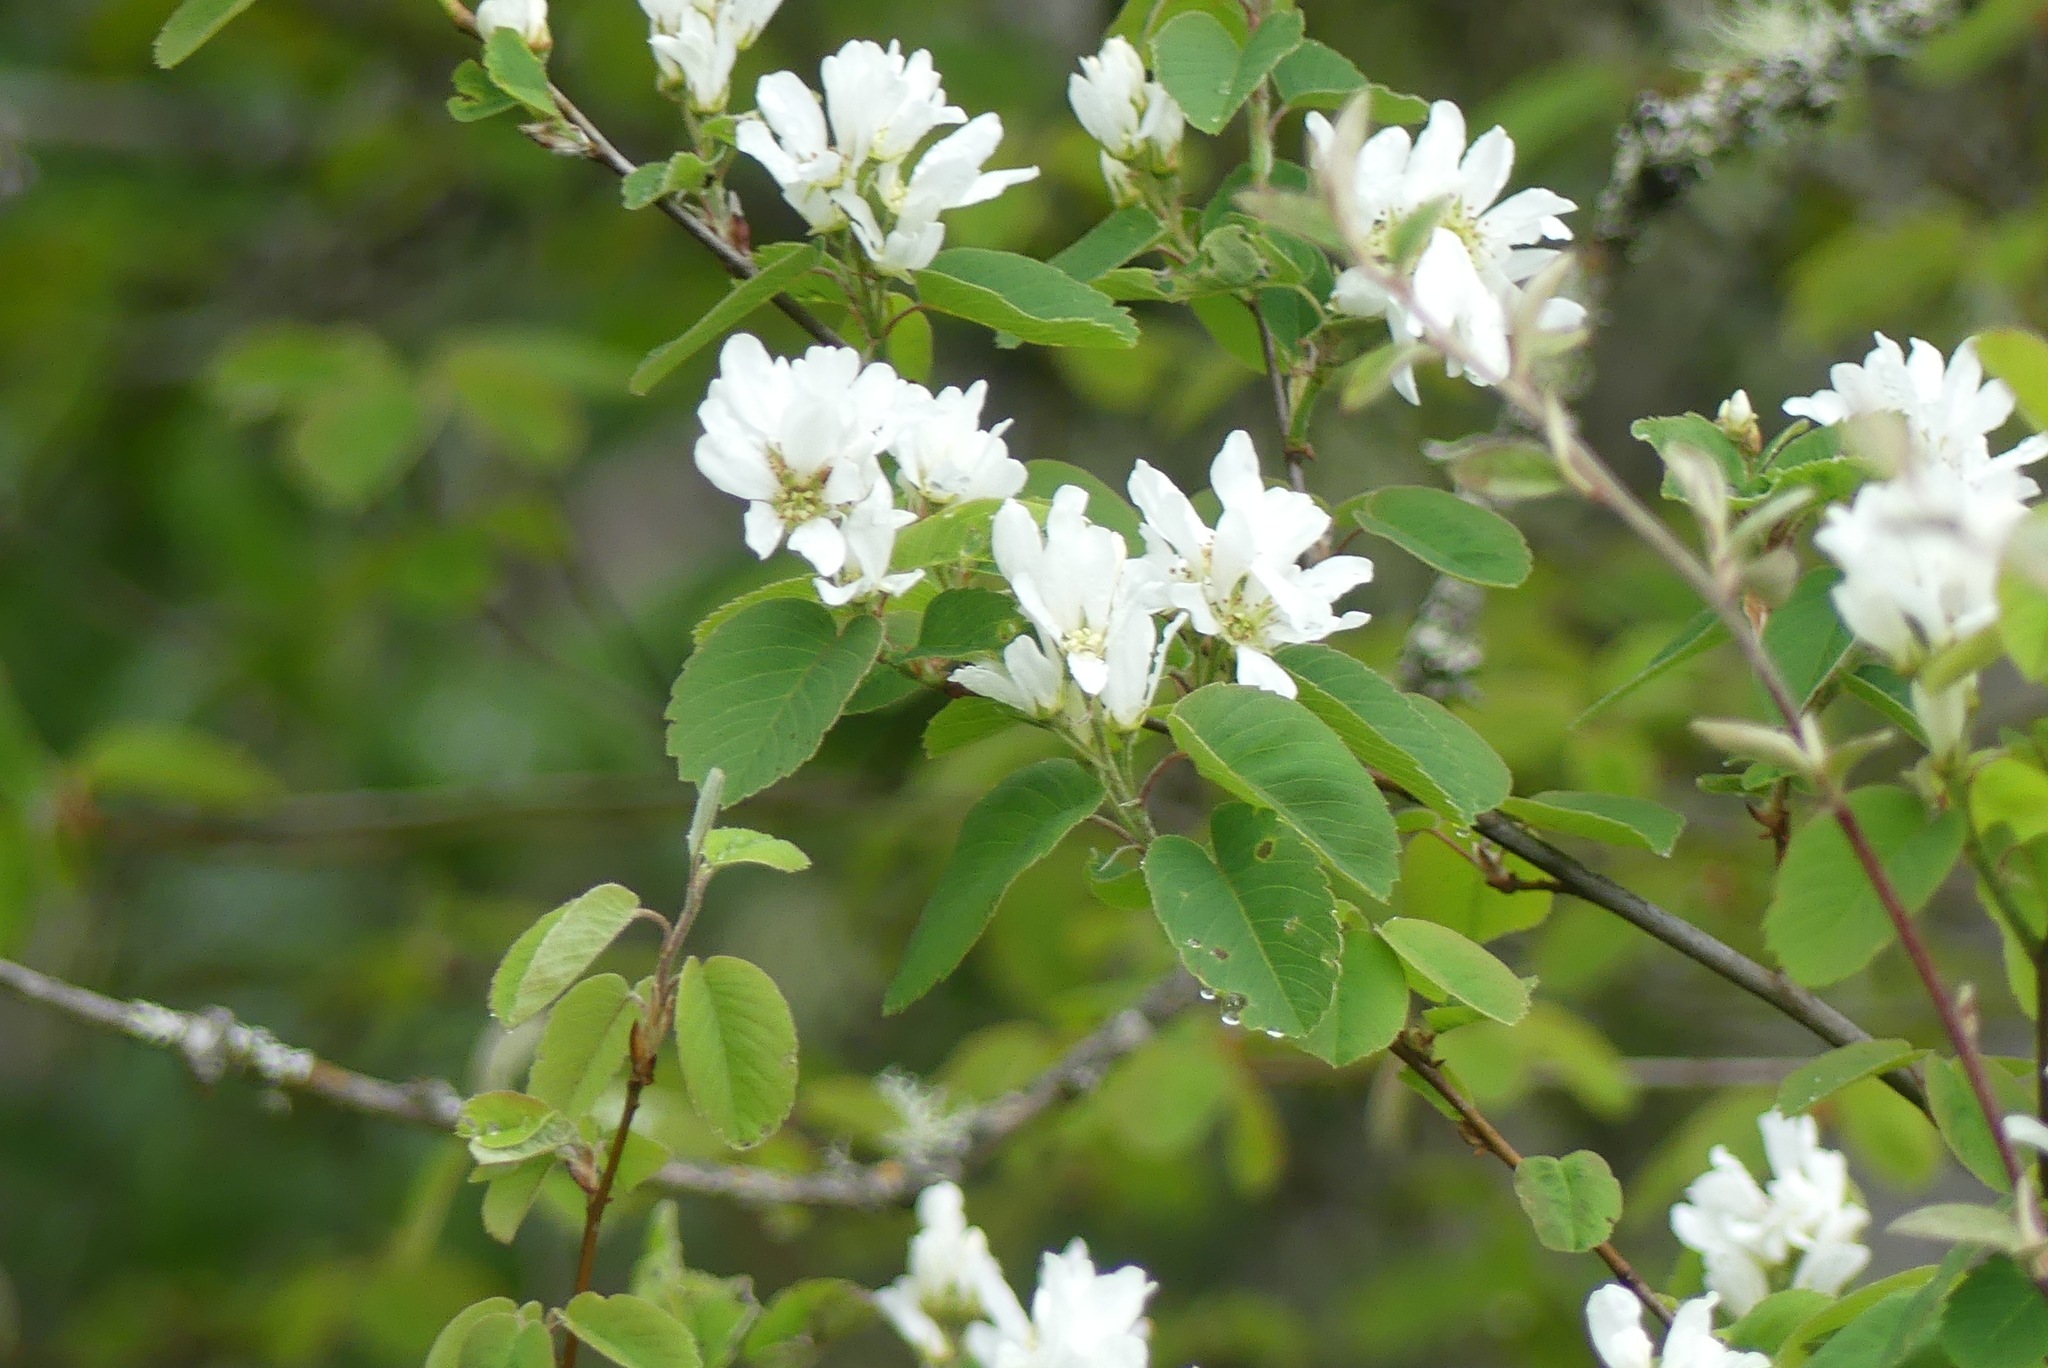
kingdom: Plantae
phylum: Tracheophyta
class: Magnoliopsida
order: Rosales
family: Rosaceae
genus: Amelanchier
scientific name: Amelanchier alnifolia
